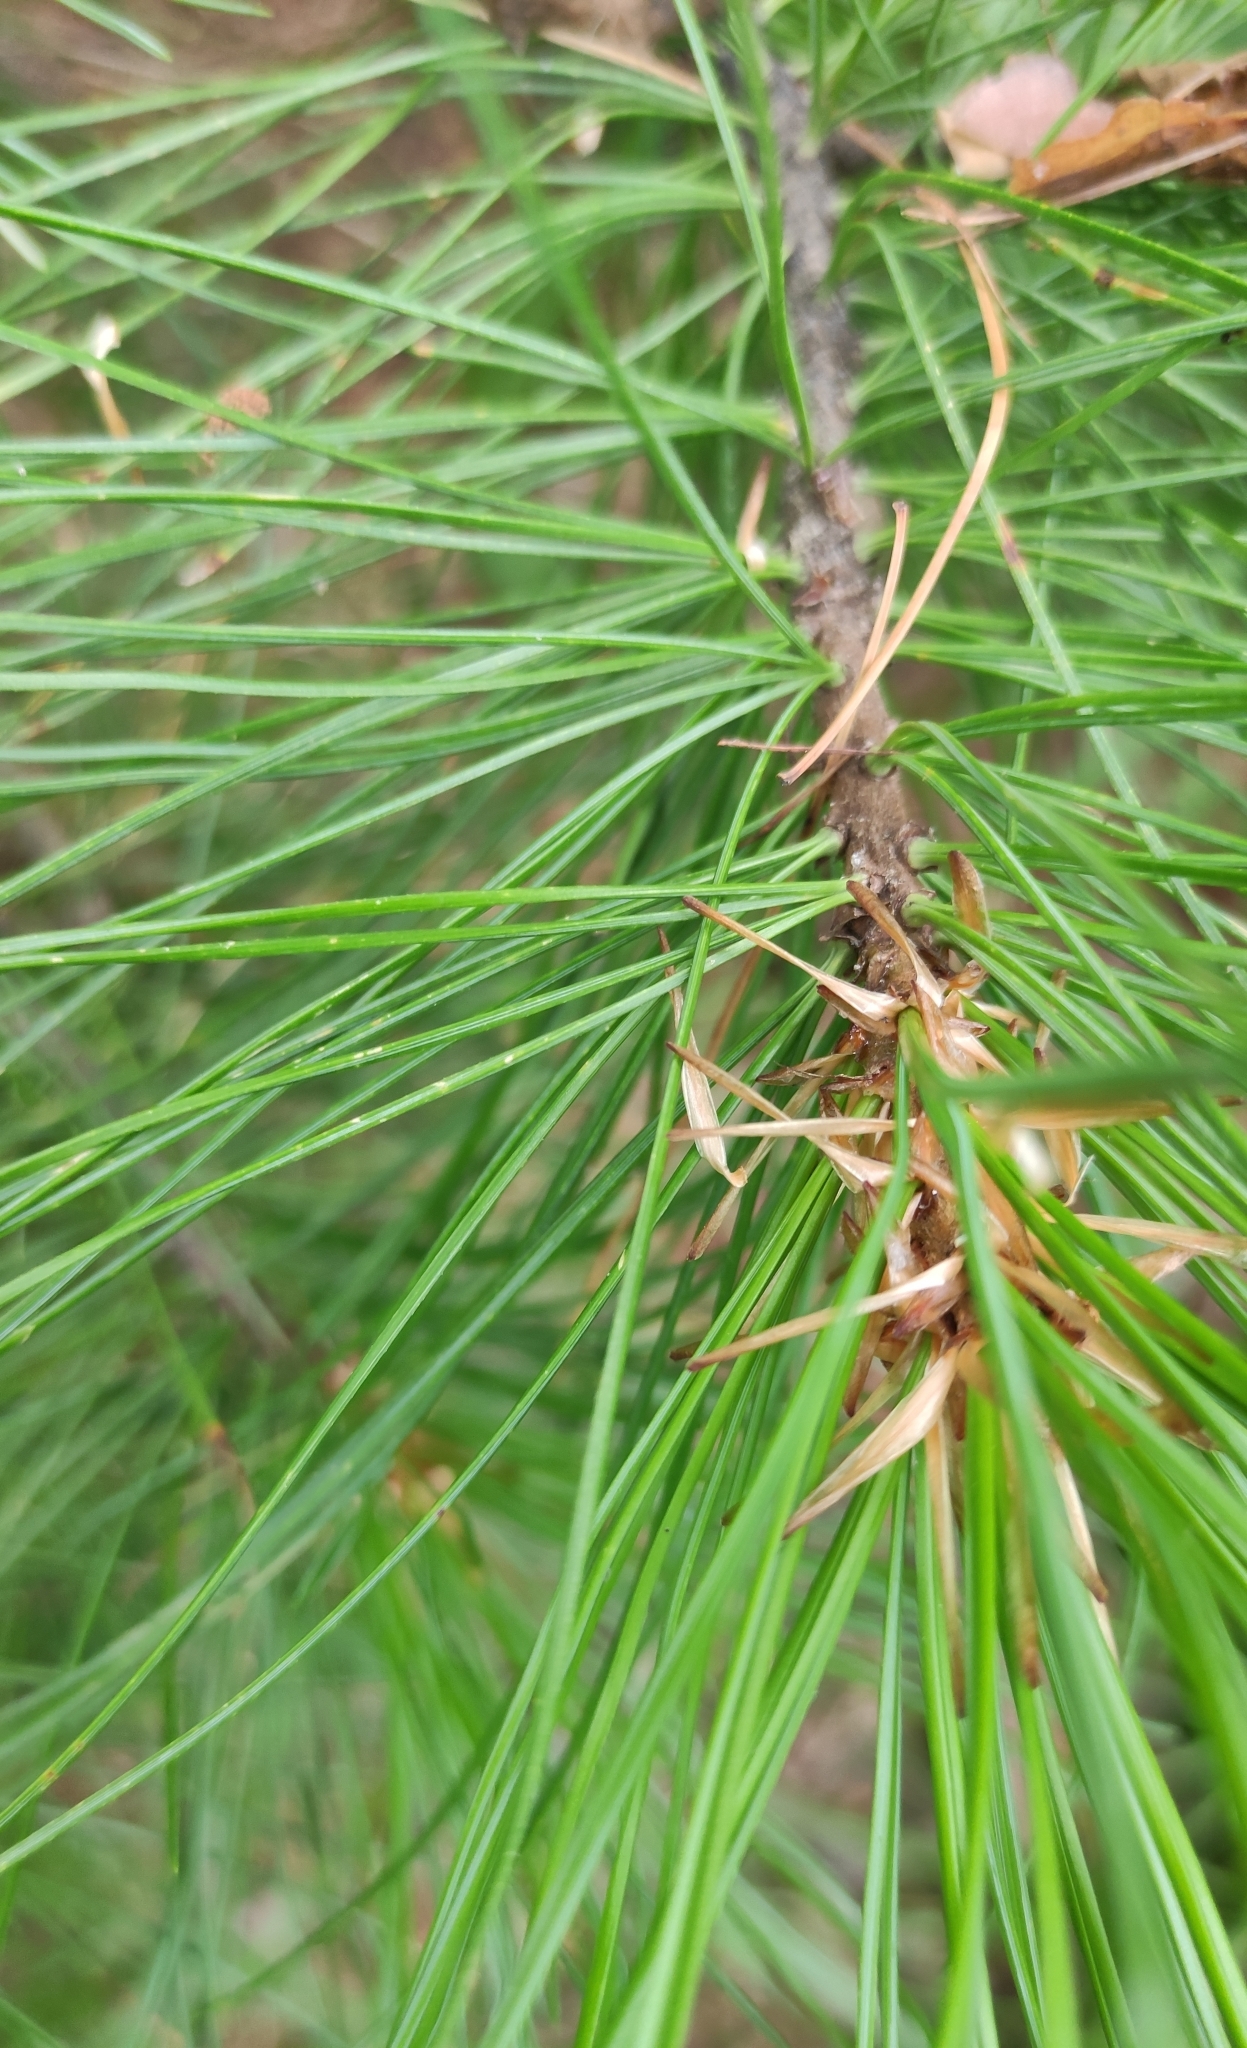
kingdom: Plantae
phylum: Tracheophyta
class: Pinopsida
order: Pinales
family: Pinaceae
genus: Pinus
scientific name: Pinus sibirica
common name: Siberian pine
